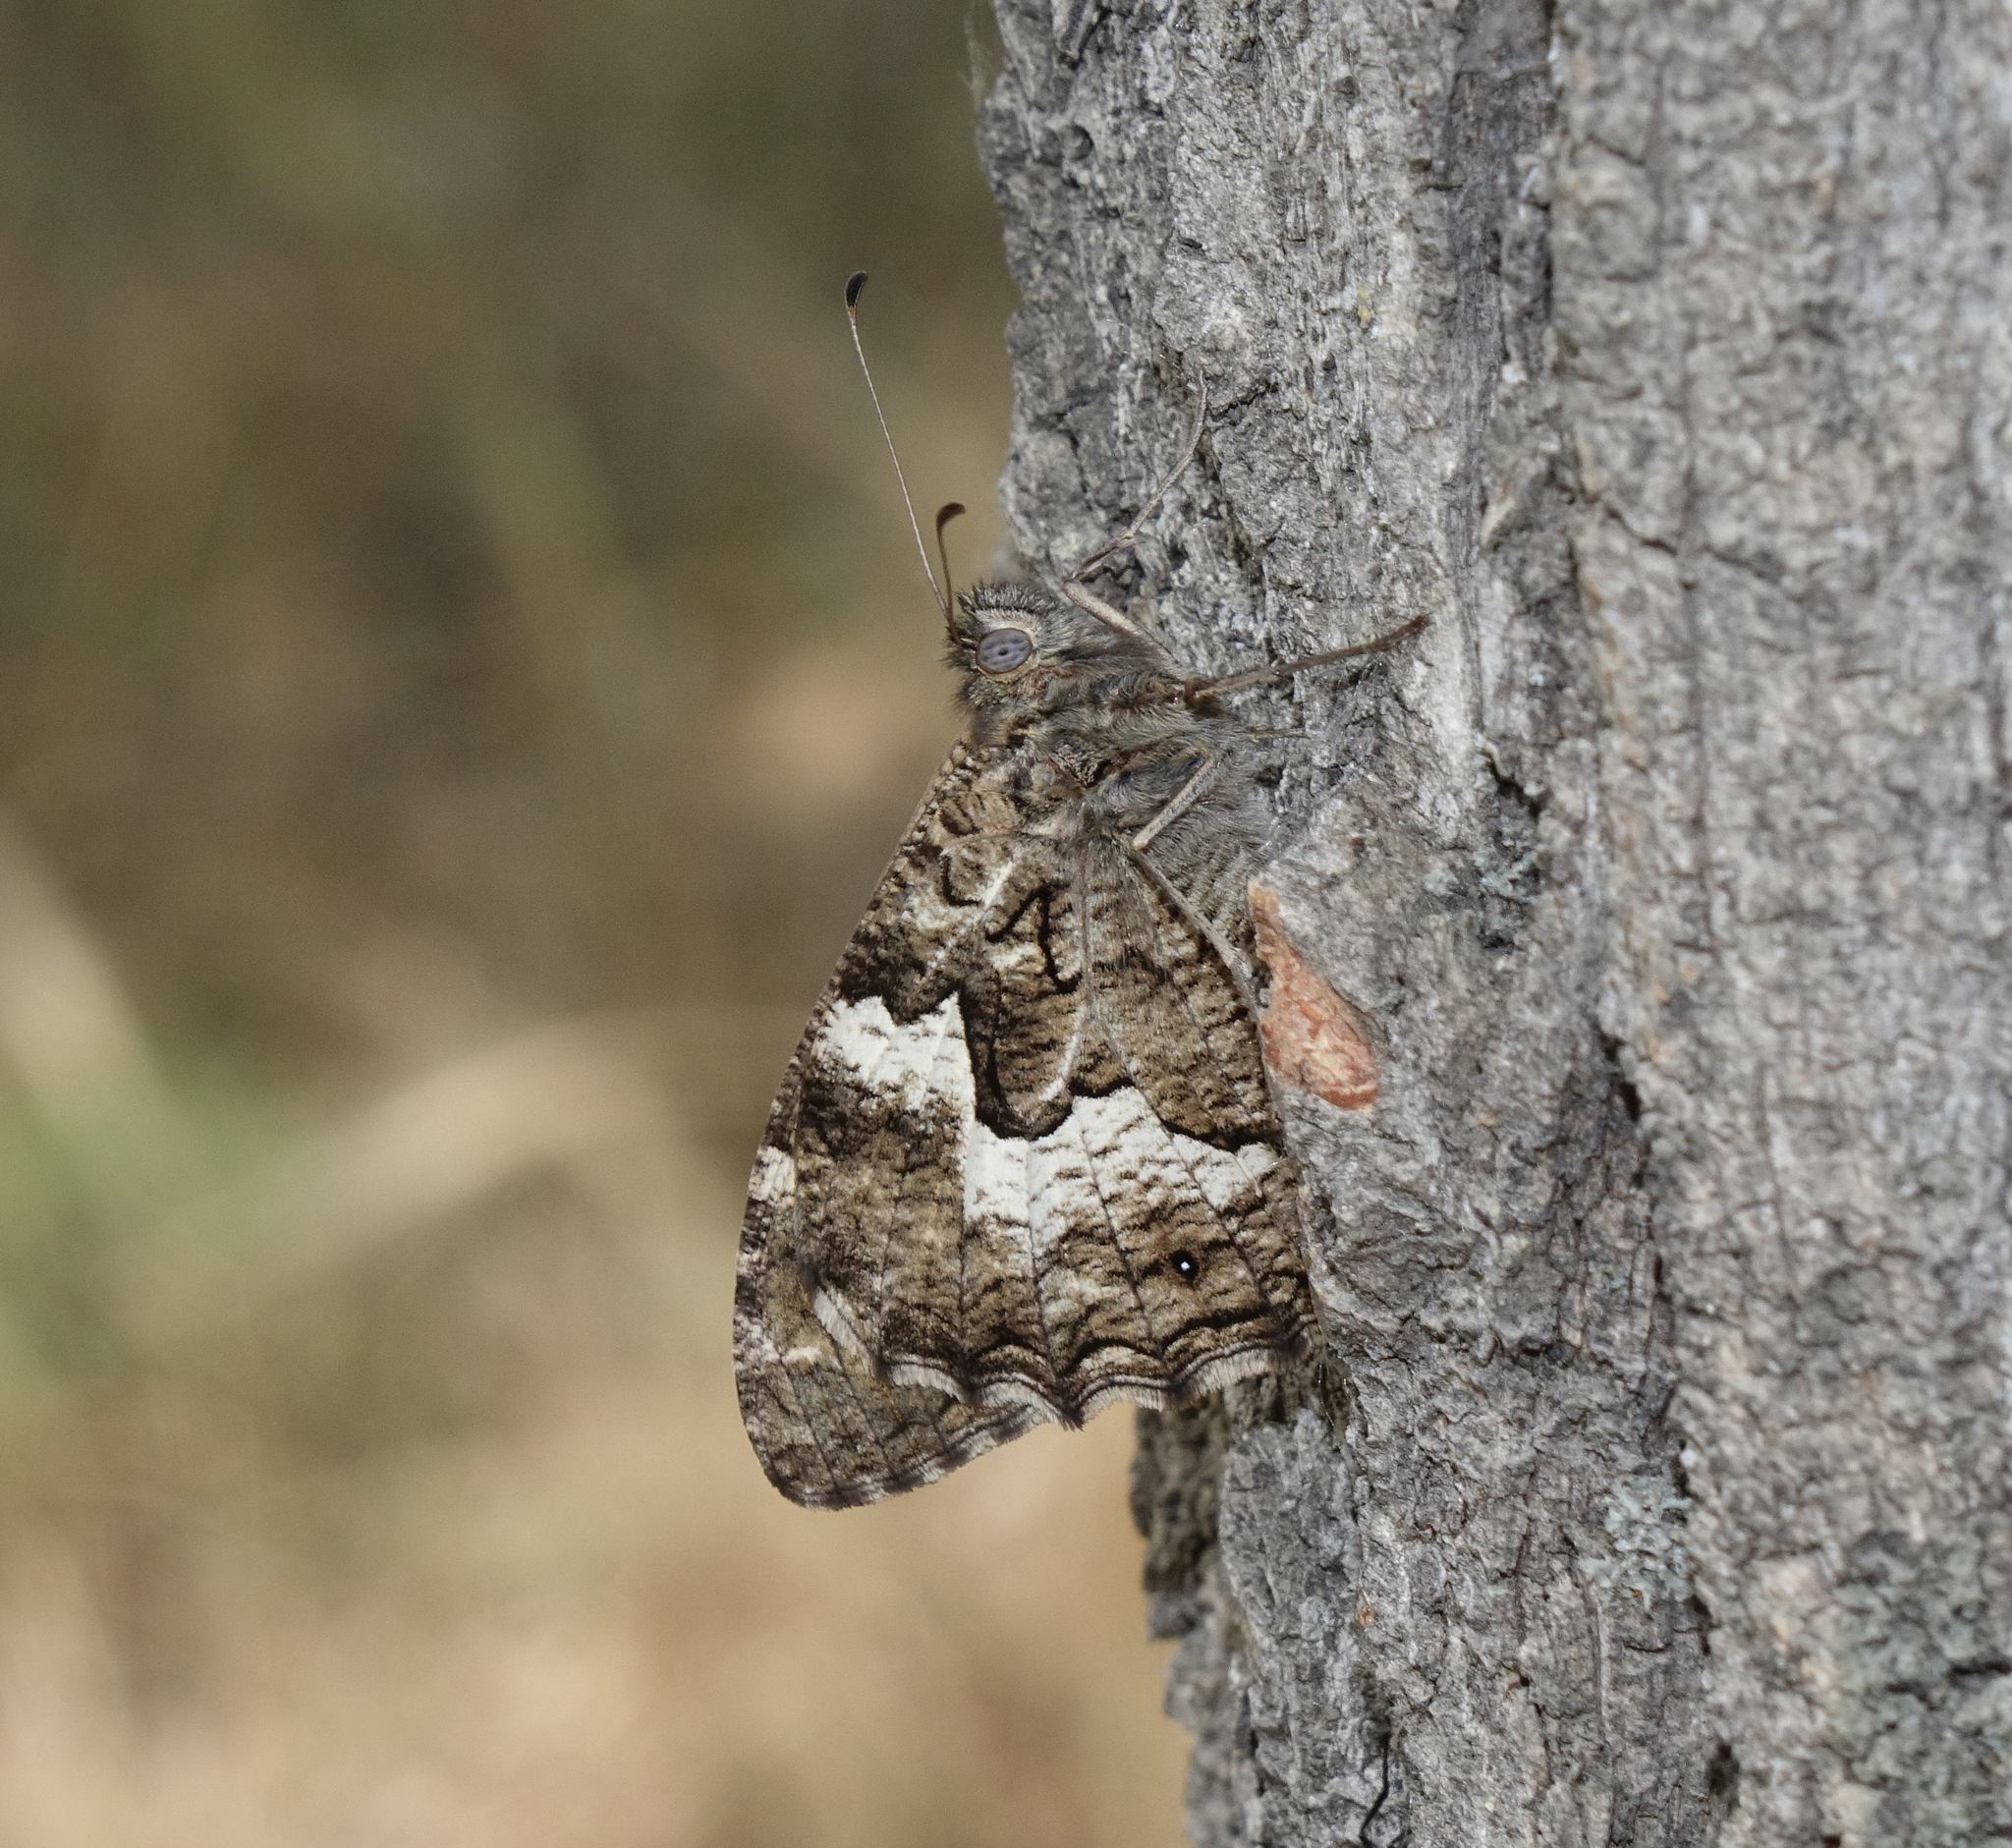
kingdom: Animalia
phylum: Arthropoda
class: Insecta
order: Lepidoptera
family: Nymphalidae
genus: Hipparchia
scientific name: Hipparchia pellucida
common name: Lesbos grayling
